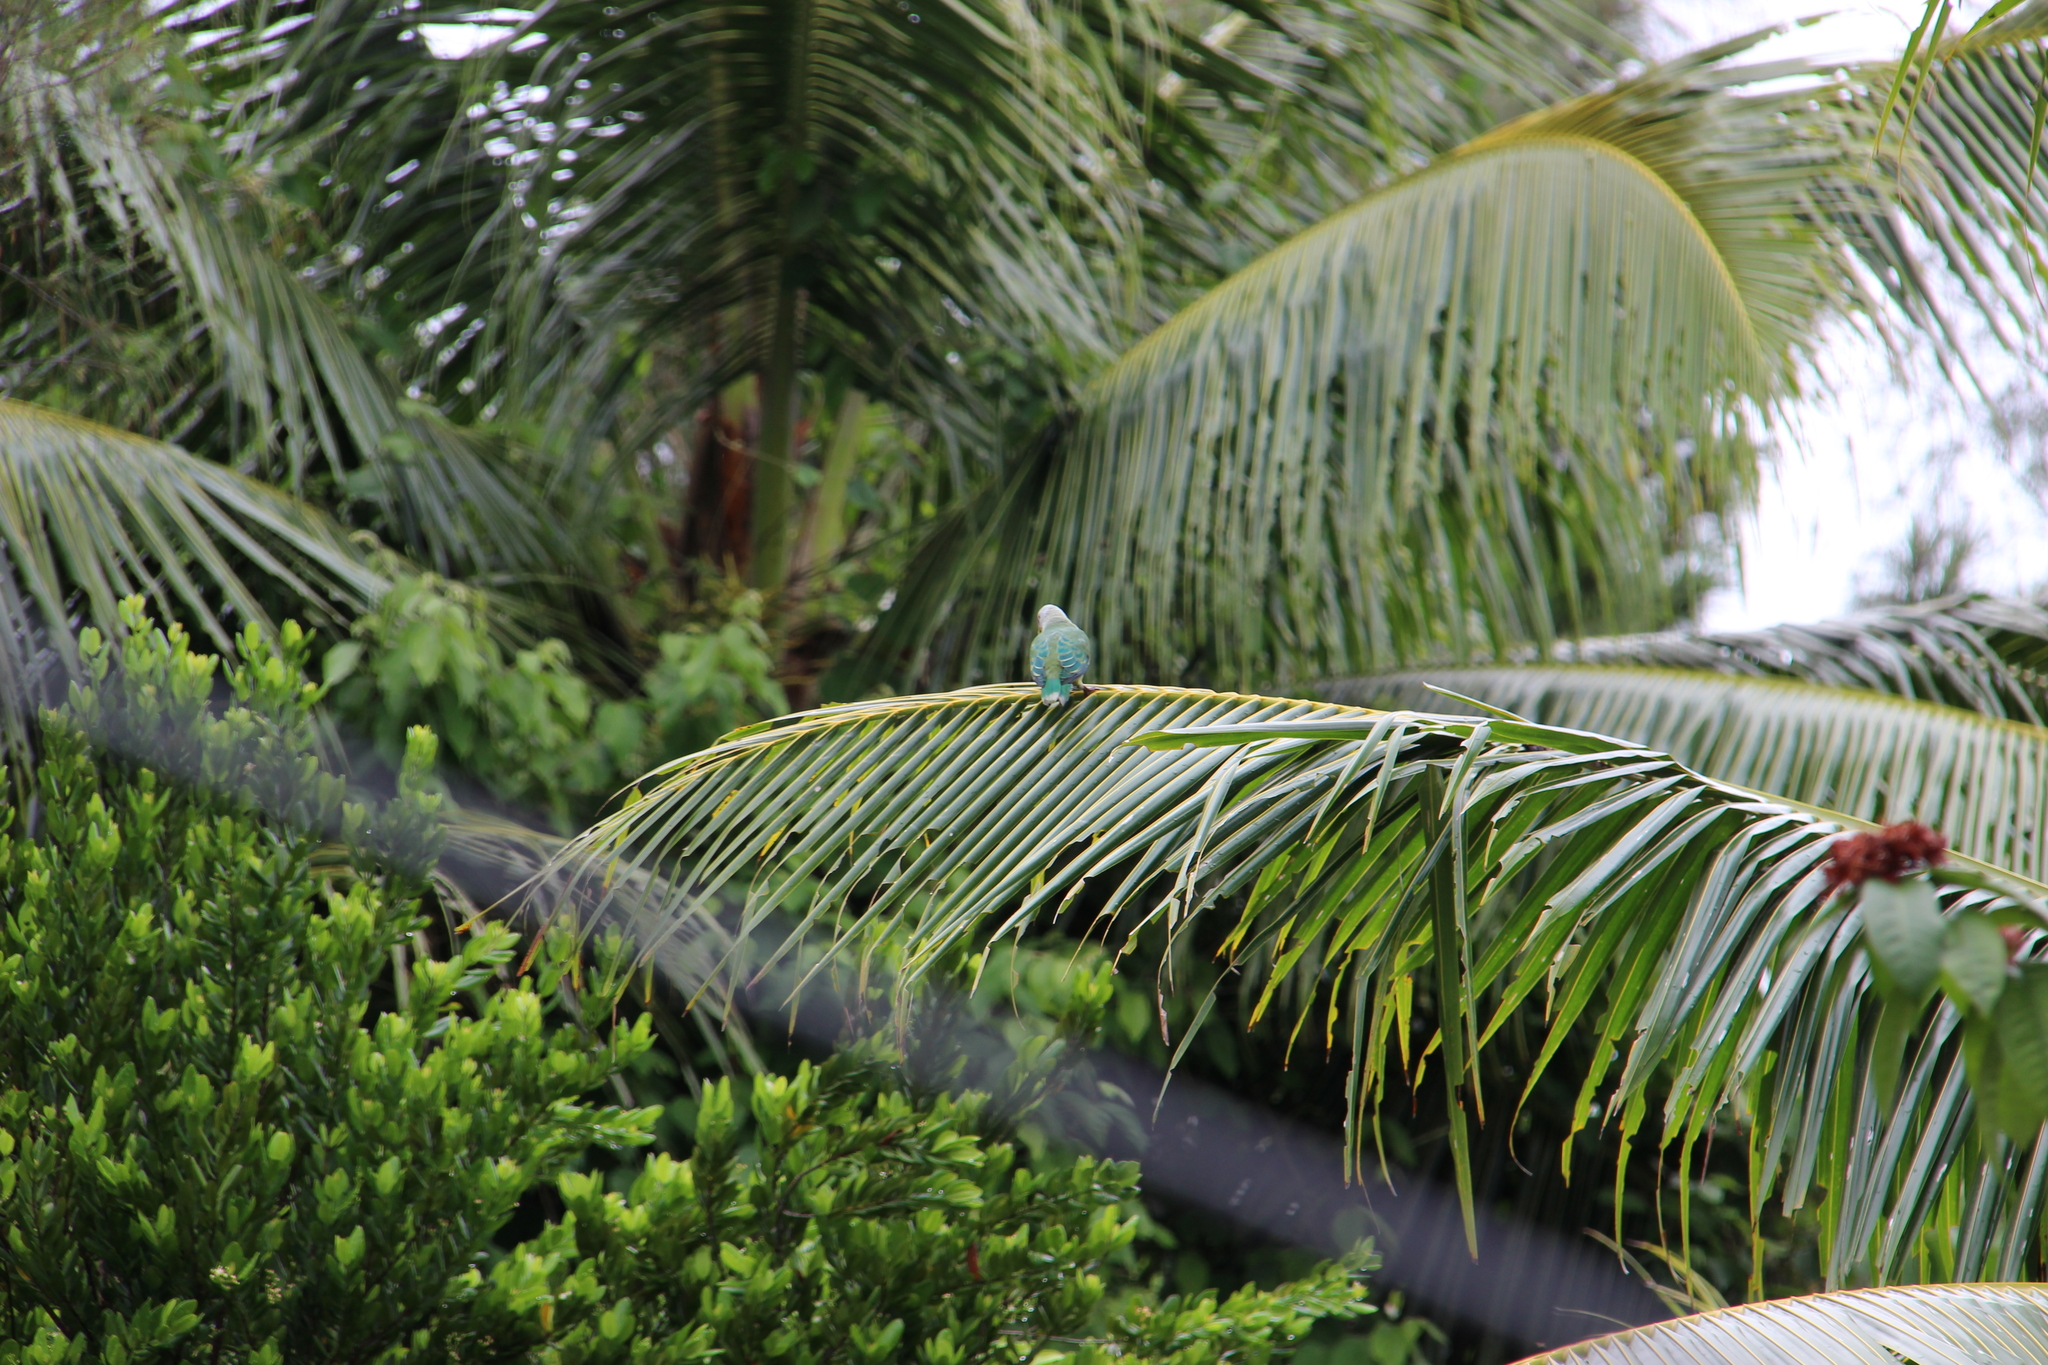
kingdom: Animalia
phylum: Chordata
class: Aves
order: Columbiformes
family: Columbidae
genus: Ptilinopus
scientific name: Ptilinopus rarotongensis
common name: Lilac-crowned fruit dove
